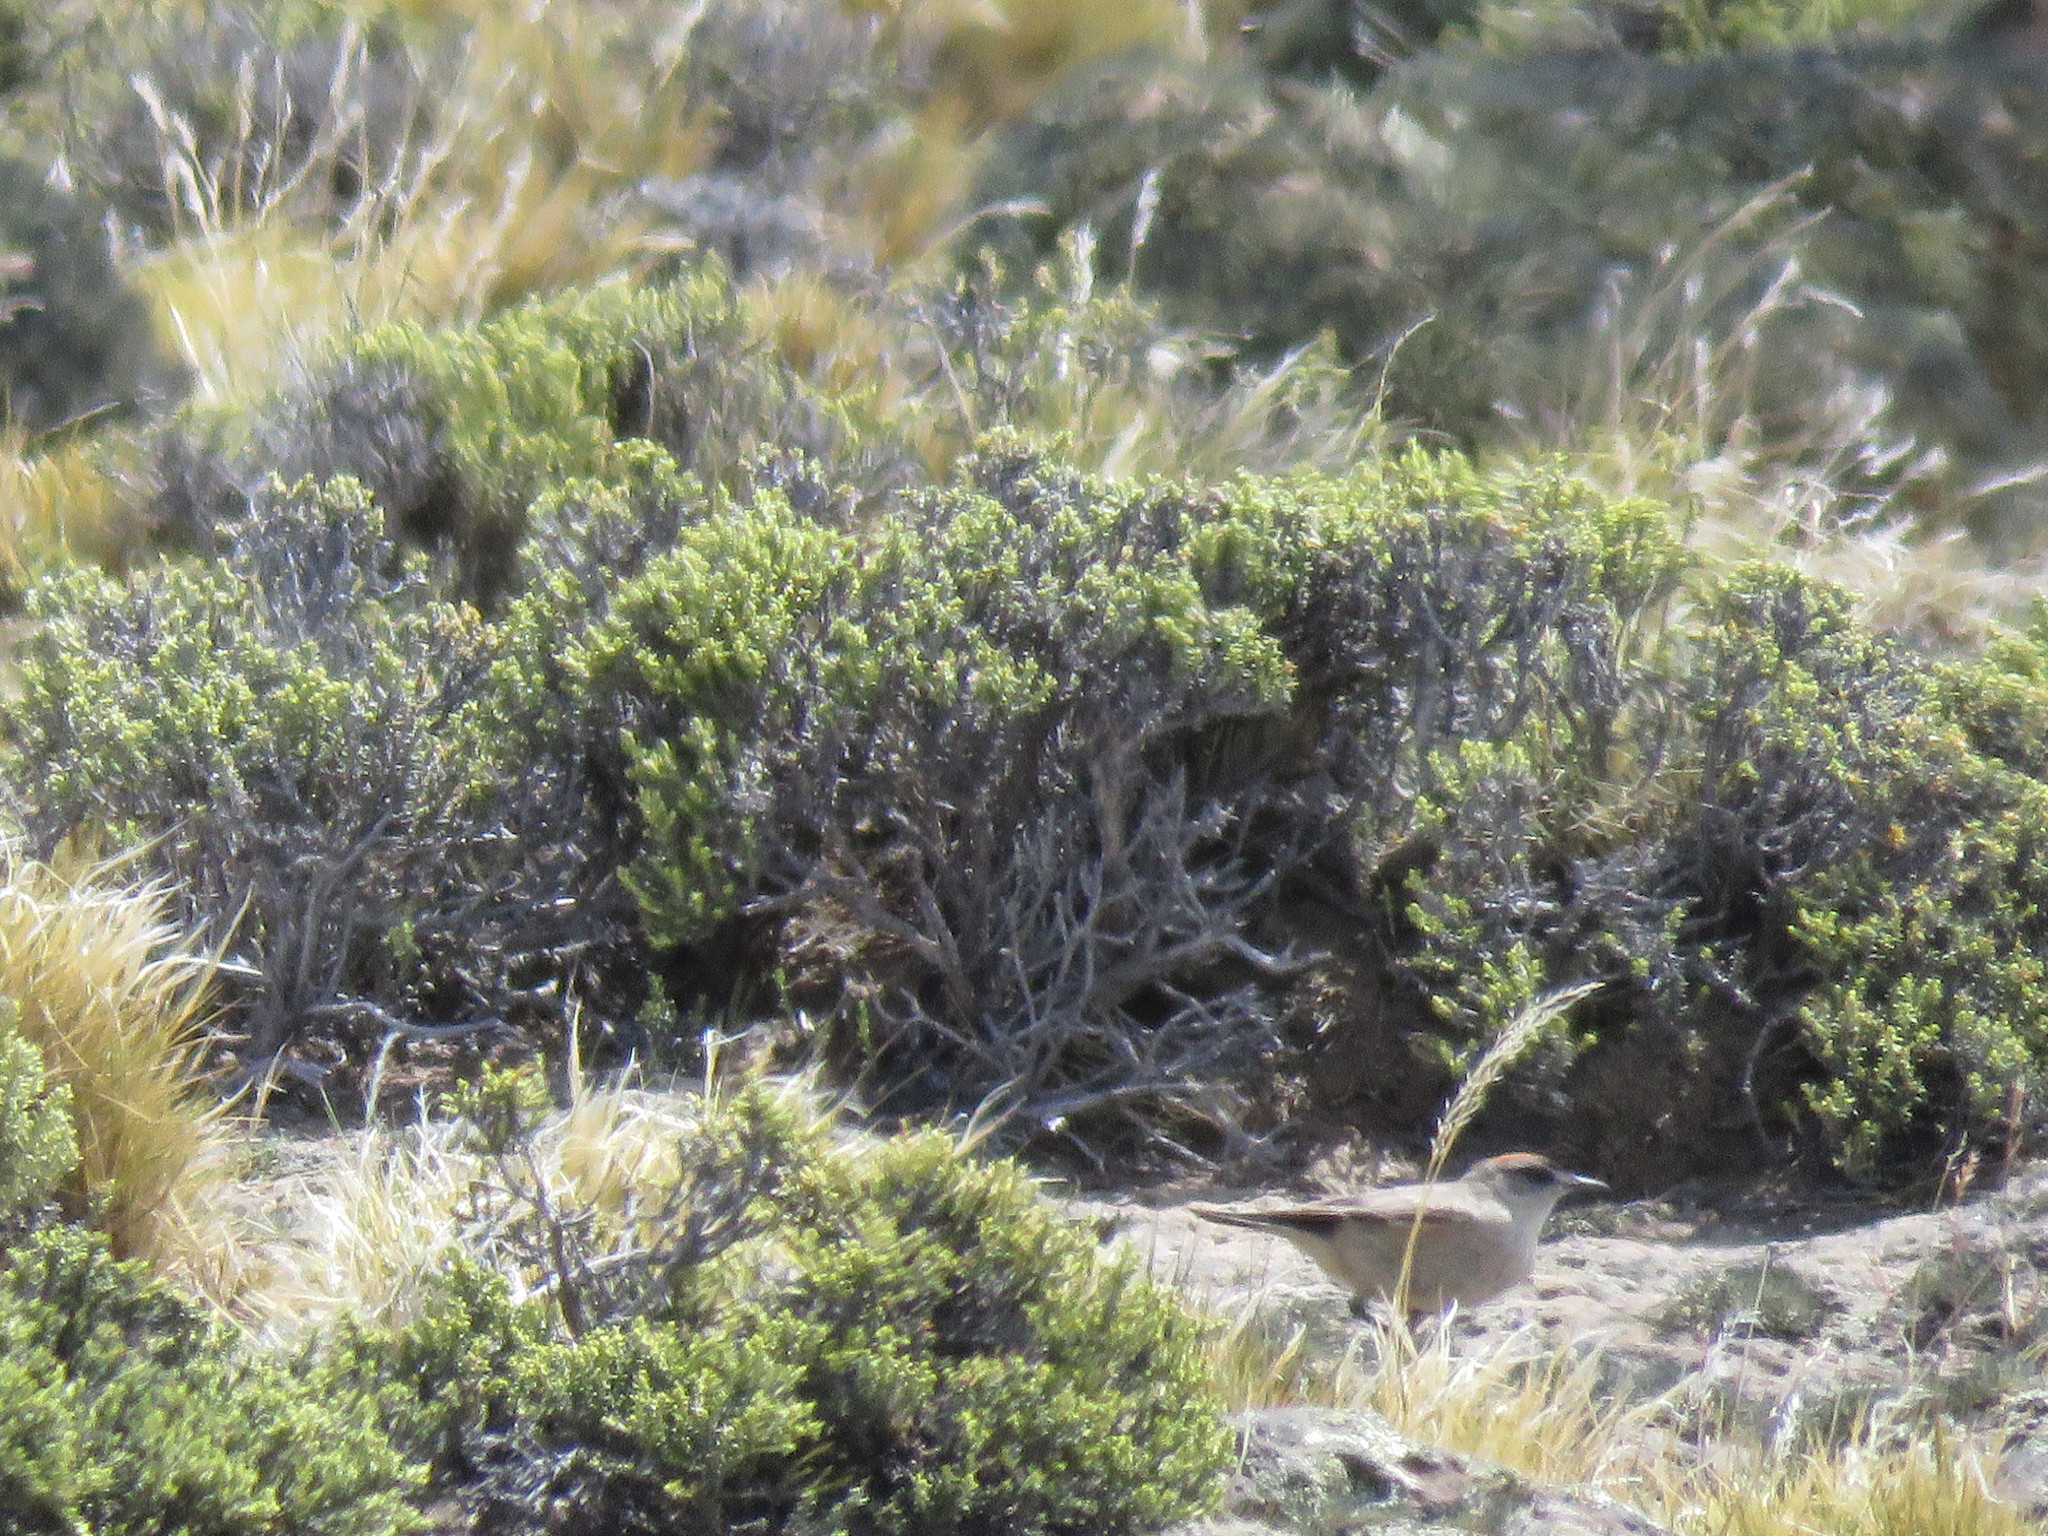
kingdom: Animalia
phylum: Chordata
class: Aves
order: Passeriformes
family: Tyrannidae
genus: Muscisaxicola
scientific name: Muscisaxicola capistratus
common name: Cinnamon-bellied ground tyrant
